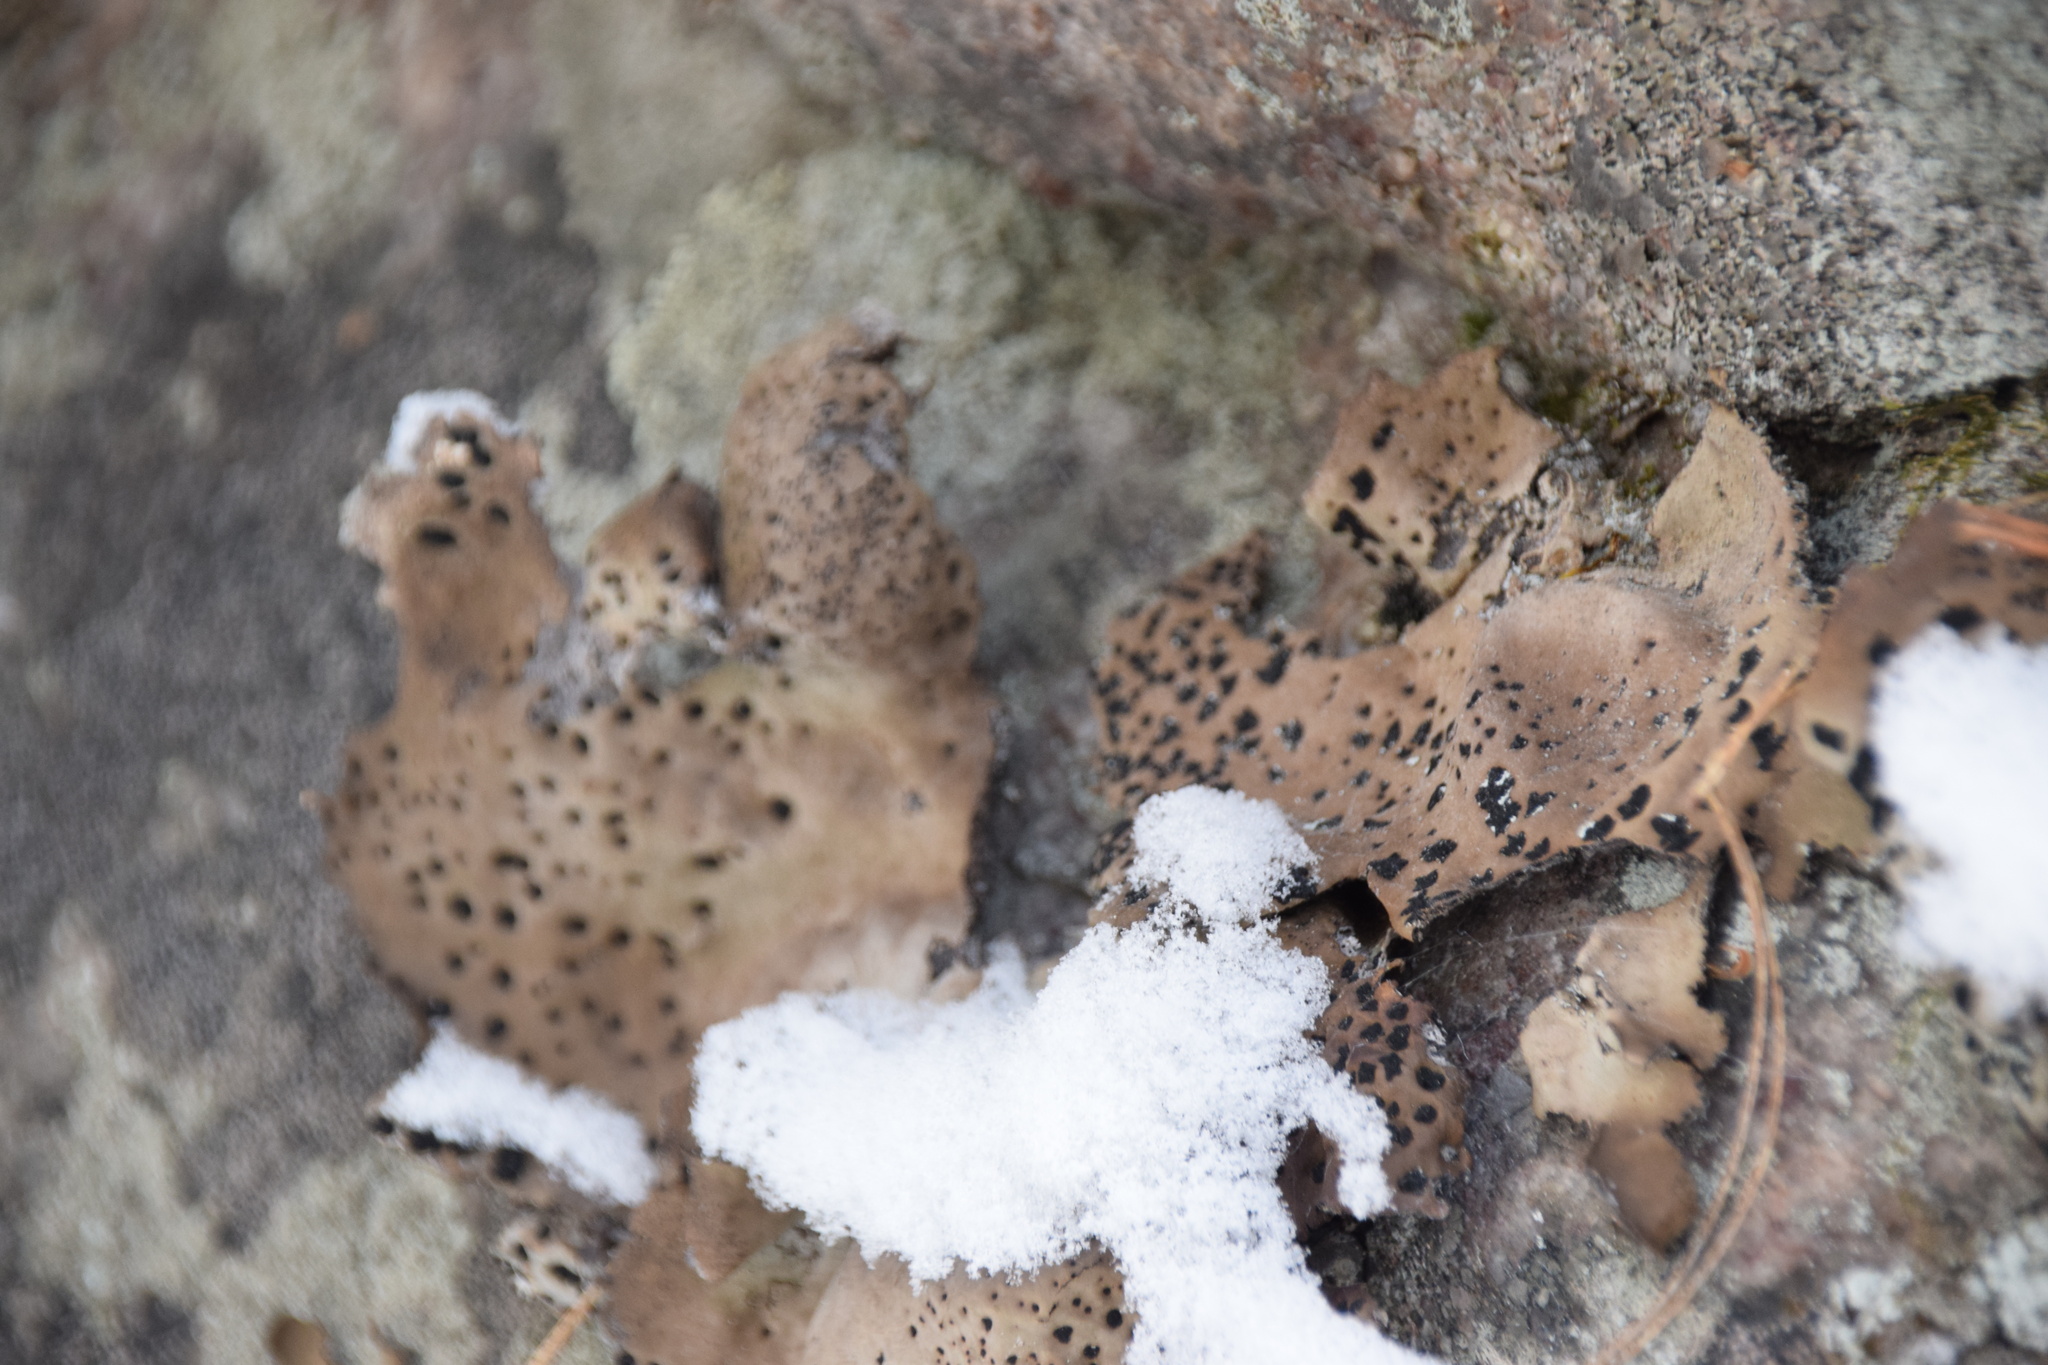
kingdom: Fungi
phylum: Ascomycota
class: Lecanoromycetes
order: Umbilicariales
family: Umbilicariaceae
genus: Umbilicaria
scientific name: Umbilicaria muhlenbergii
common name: Lesser rocktripe
